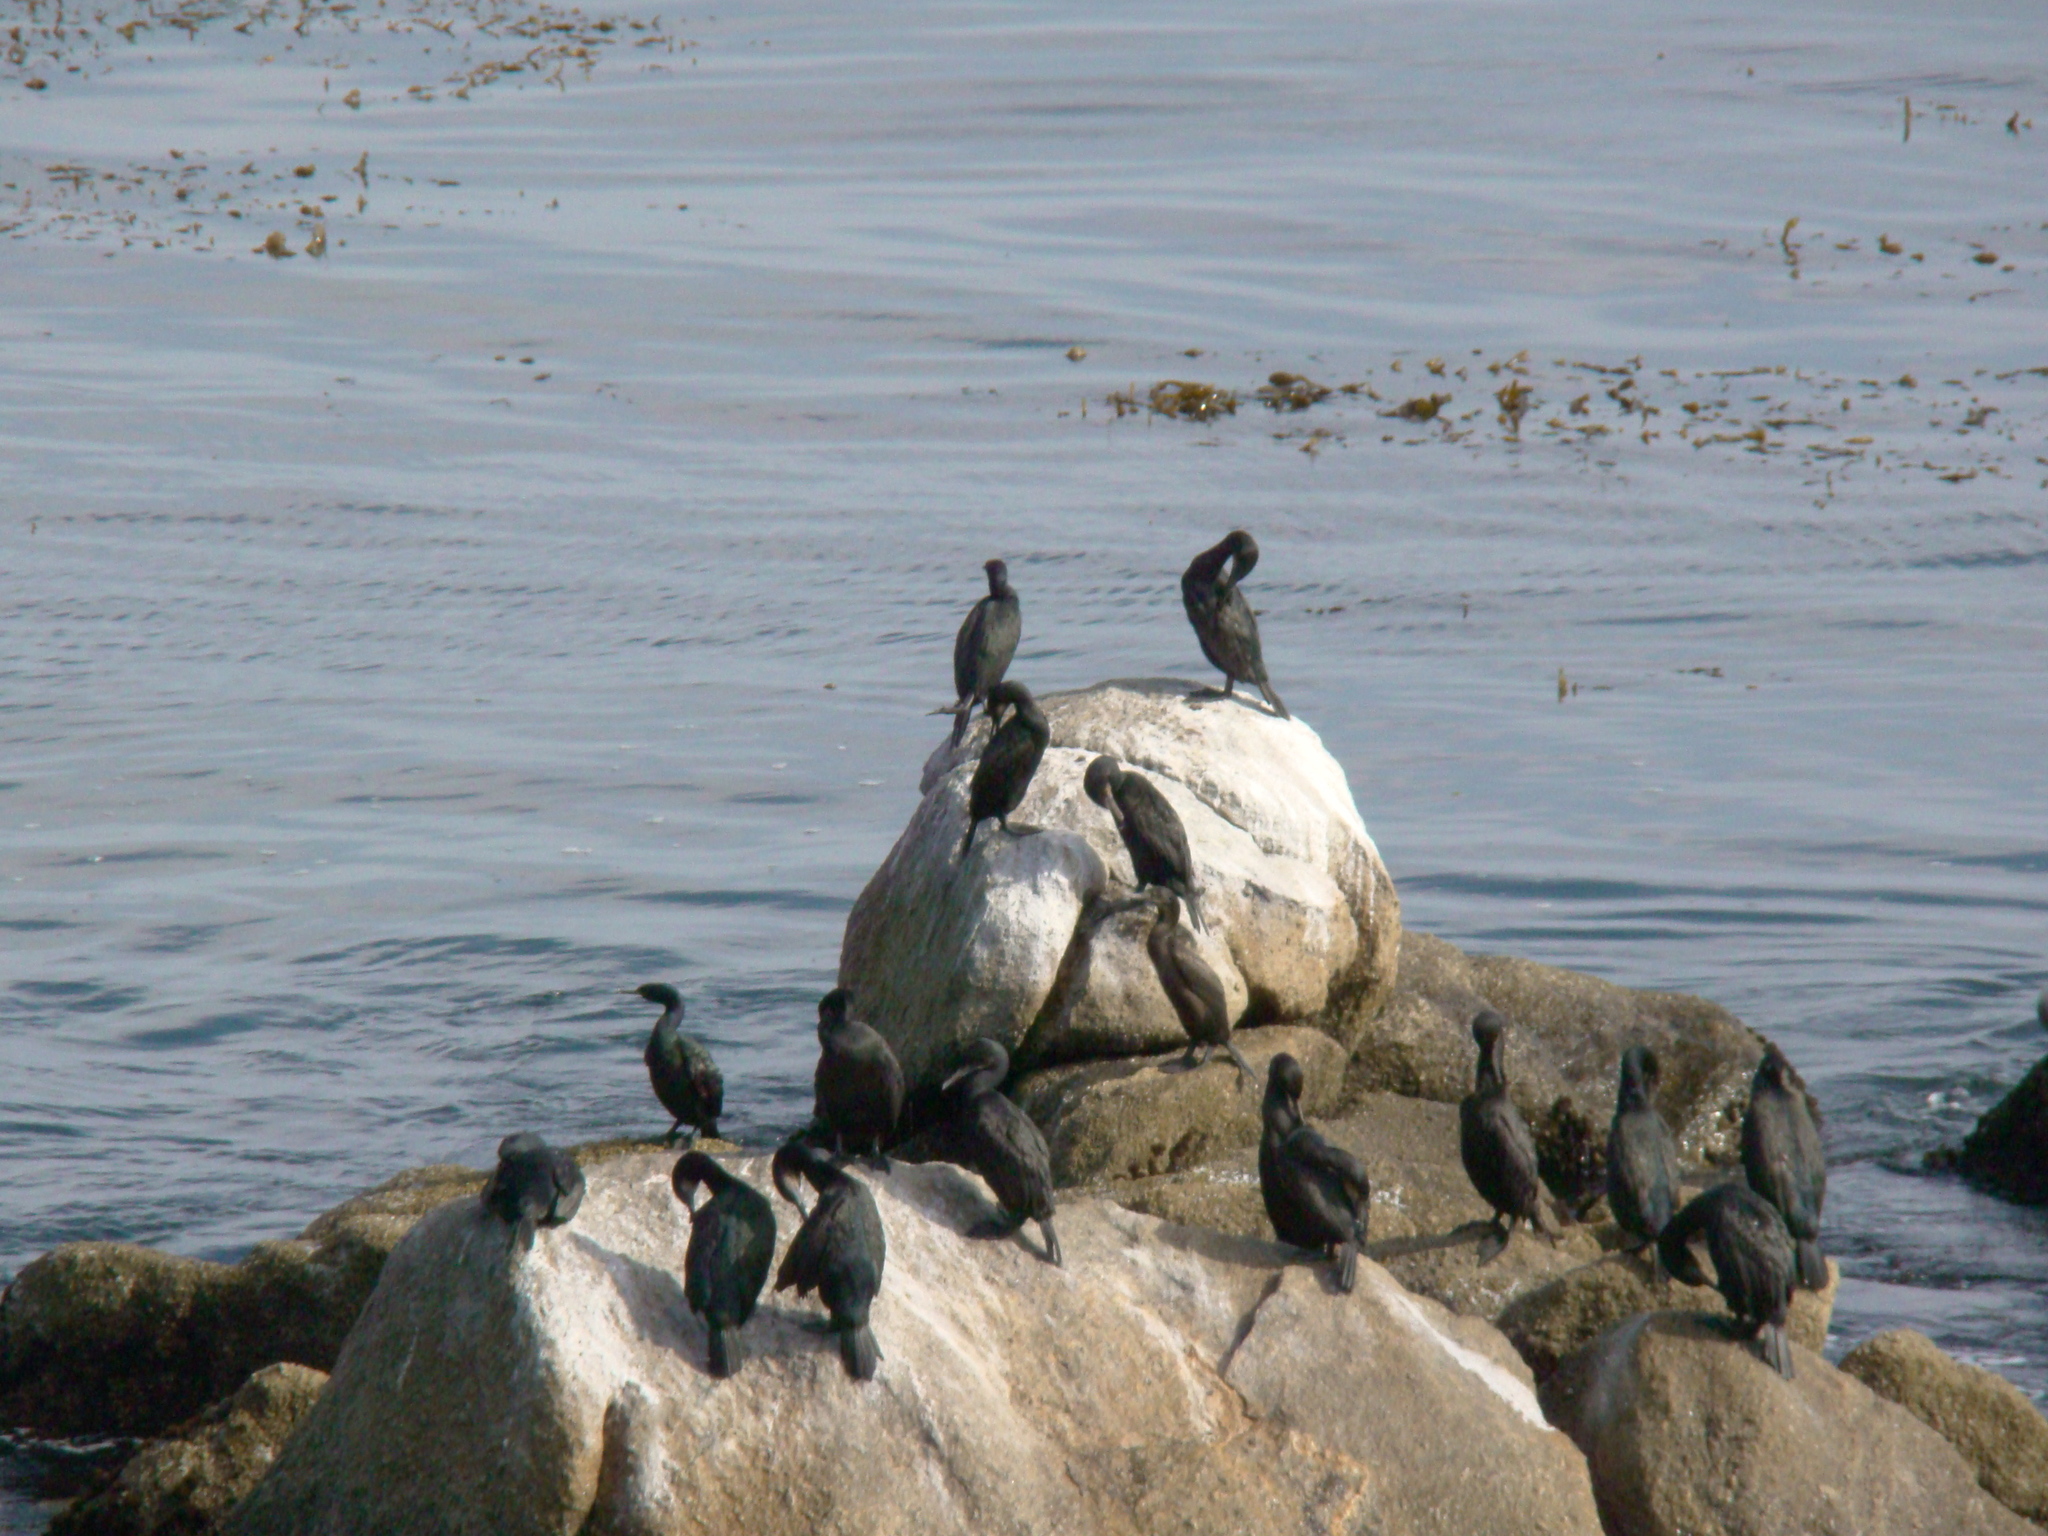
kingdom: Animalia
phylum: Chordata
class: Aves
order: Suliformes
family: Phalacrocoracidae
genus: Urile
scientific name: Urile penicillatus
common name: Brandt's cormorant
